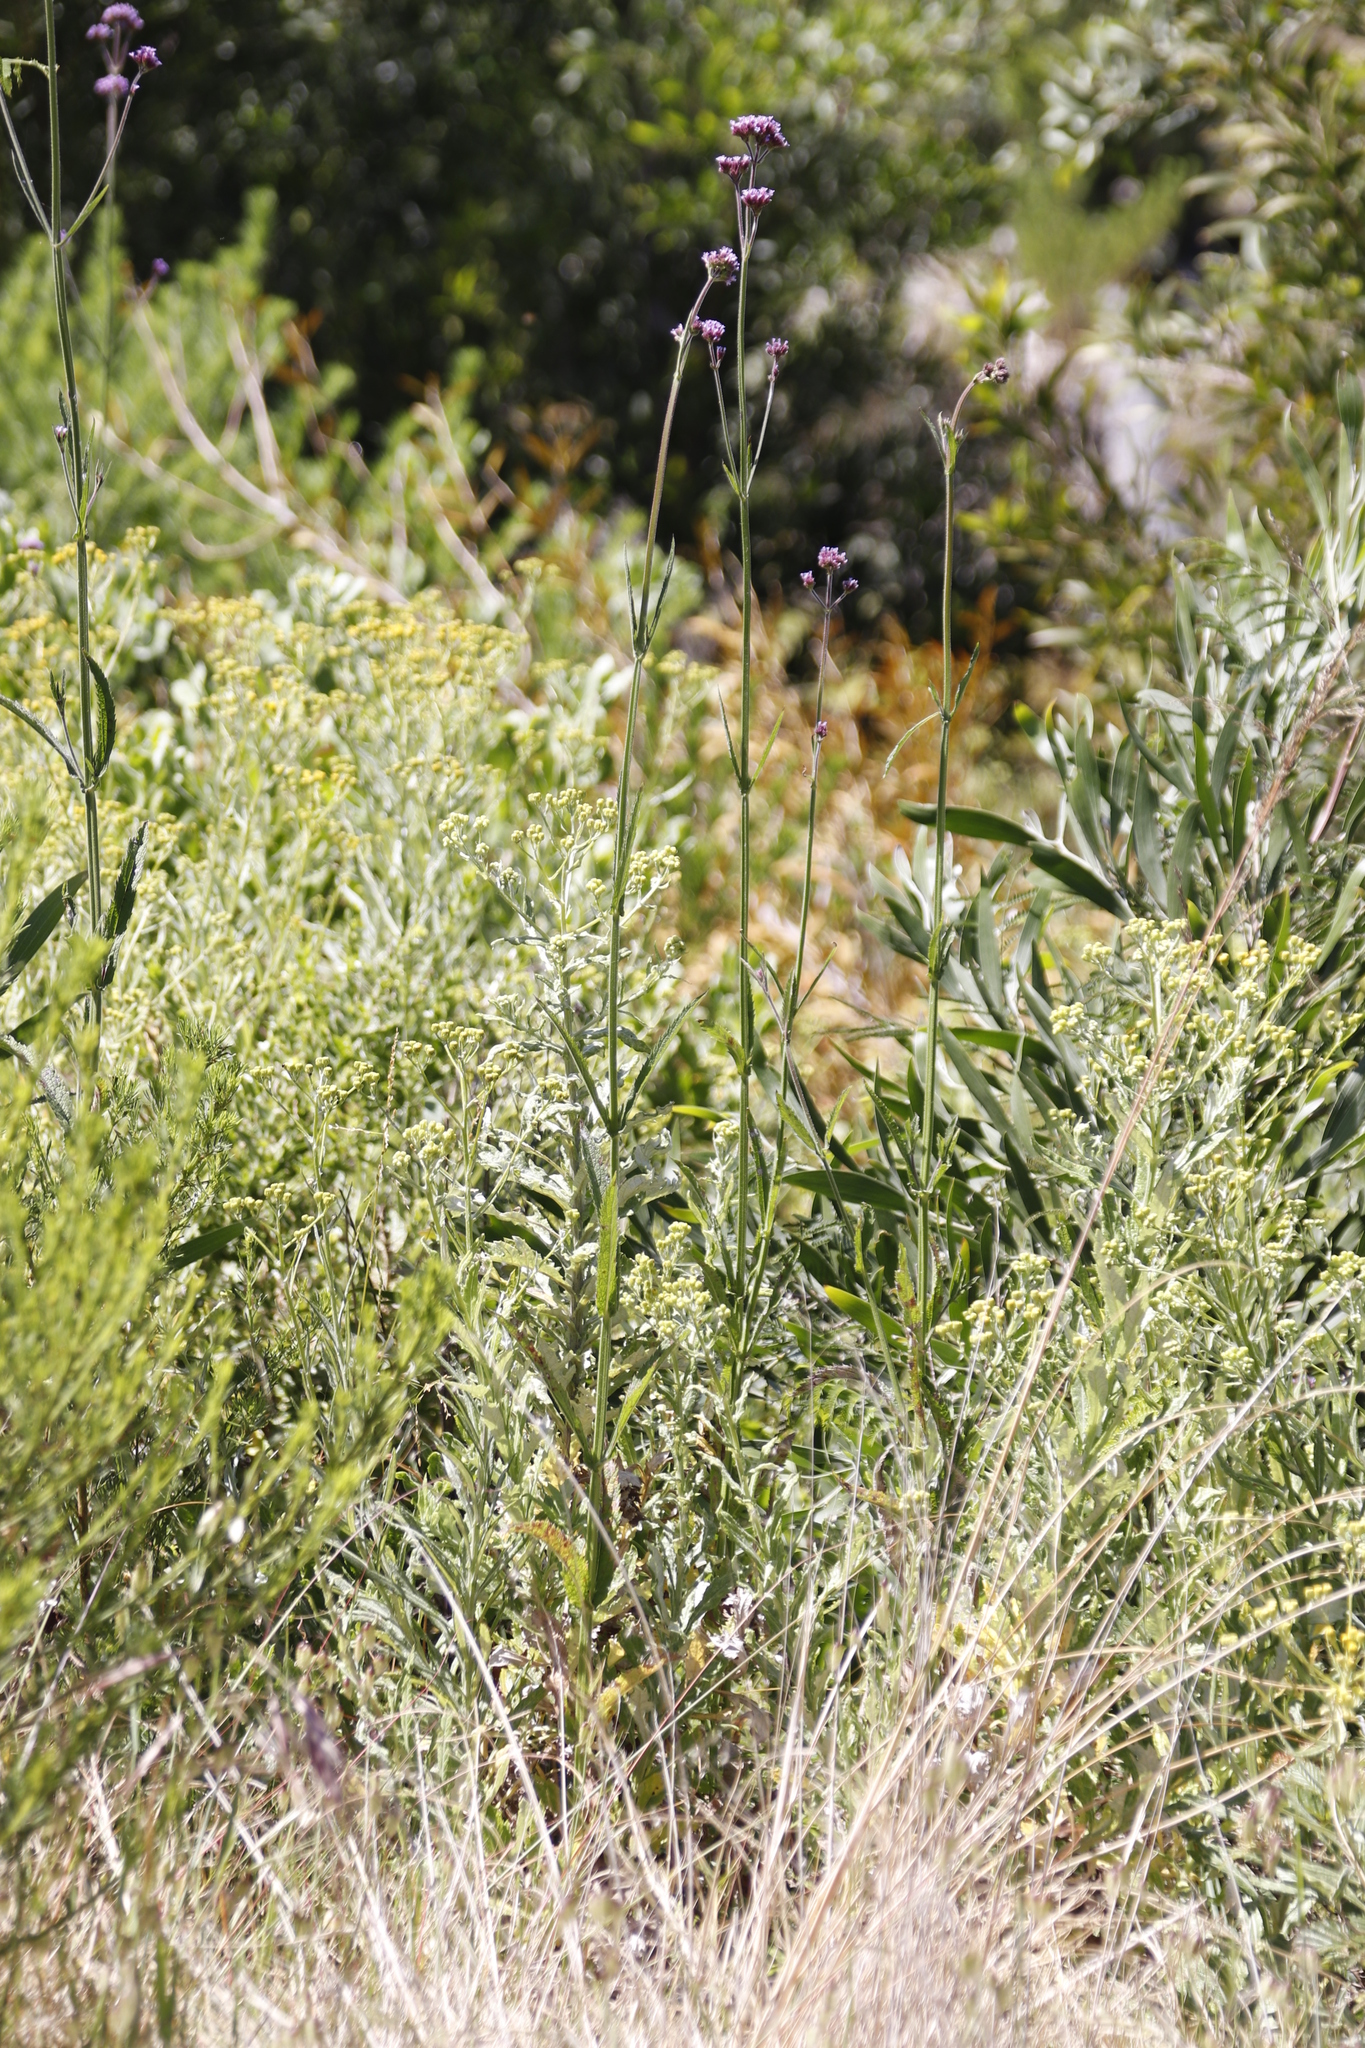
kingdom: Plantae
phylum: Tracheophyta
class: Magnoliopsida
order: Lamiales
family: Verbenaceae
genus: Verbena
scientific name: Verbena bonariensis
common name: Purpletop vervain
